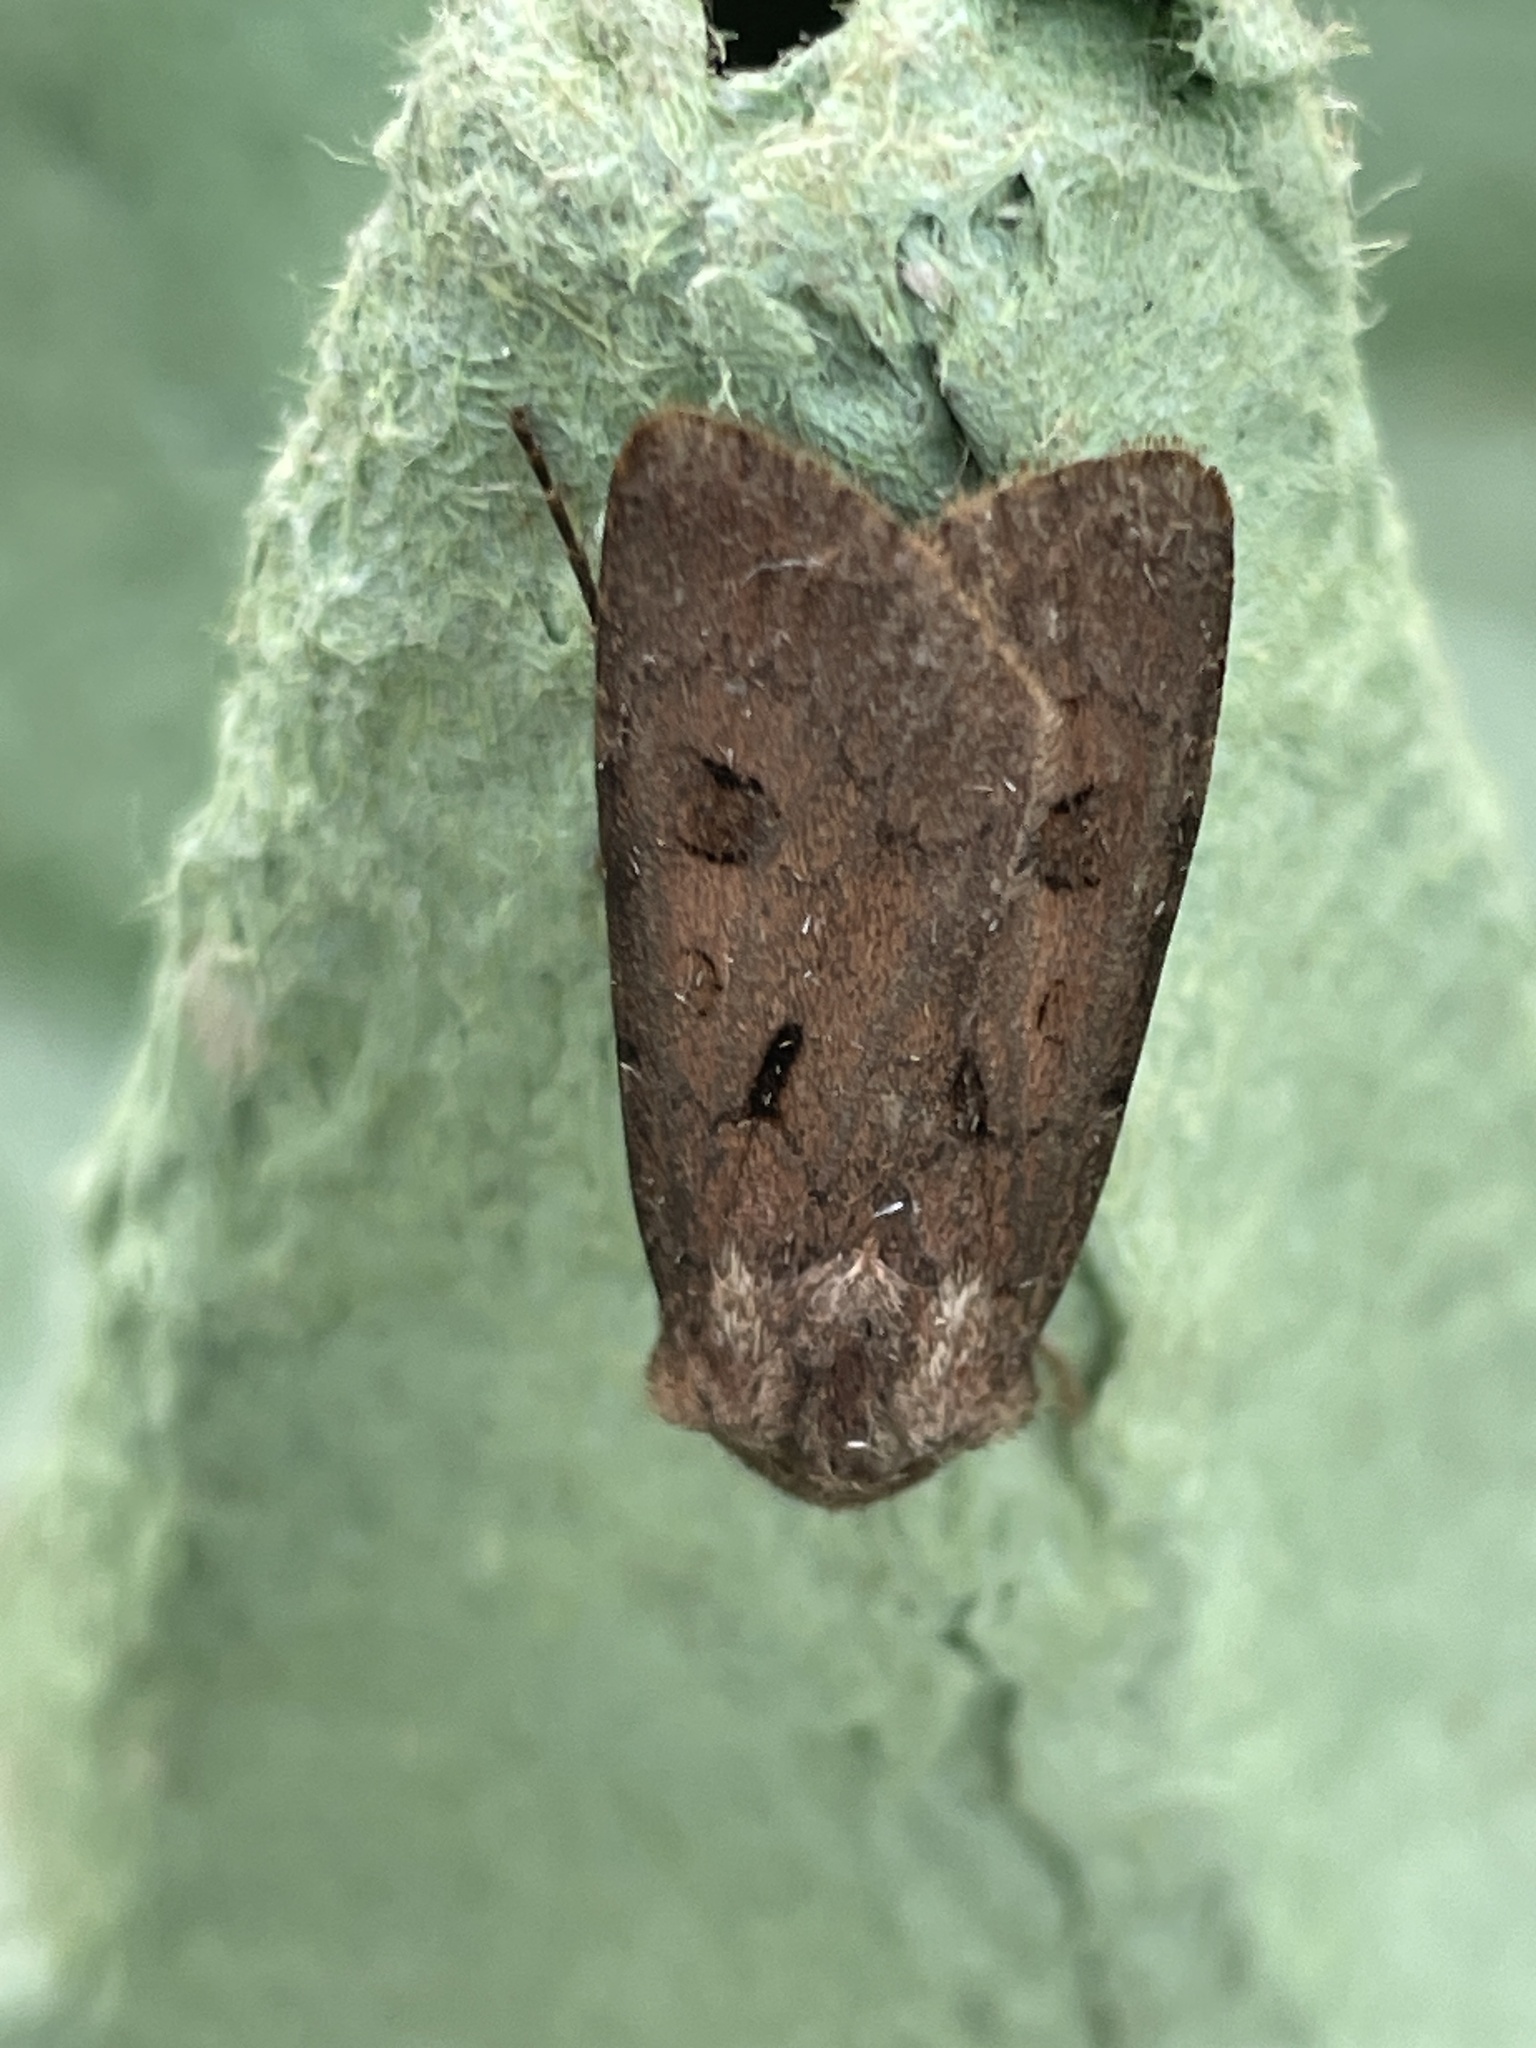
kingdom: Animalia
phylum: Arthropoda
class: Insecta
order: Lepidoptera
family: Noctuidae
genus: Agrotis
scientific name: Agrotis exclamationis
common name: Heart and dart
